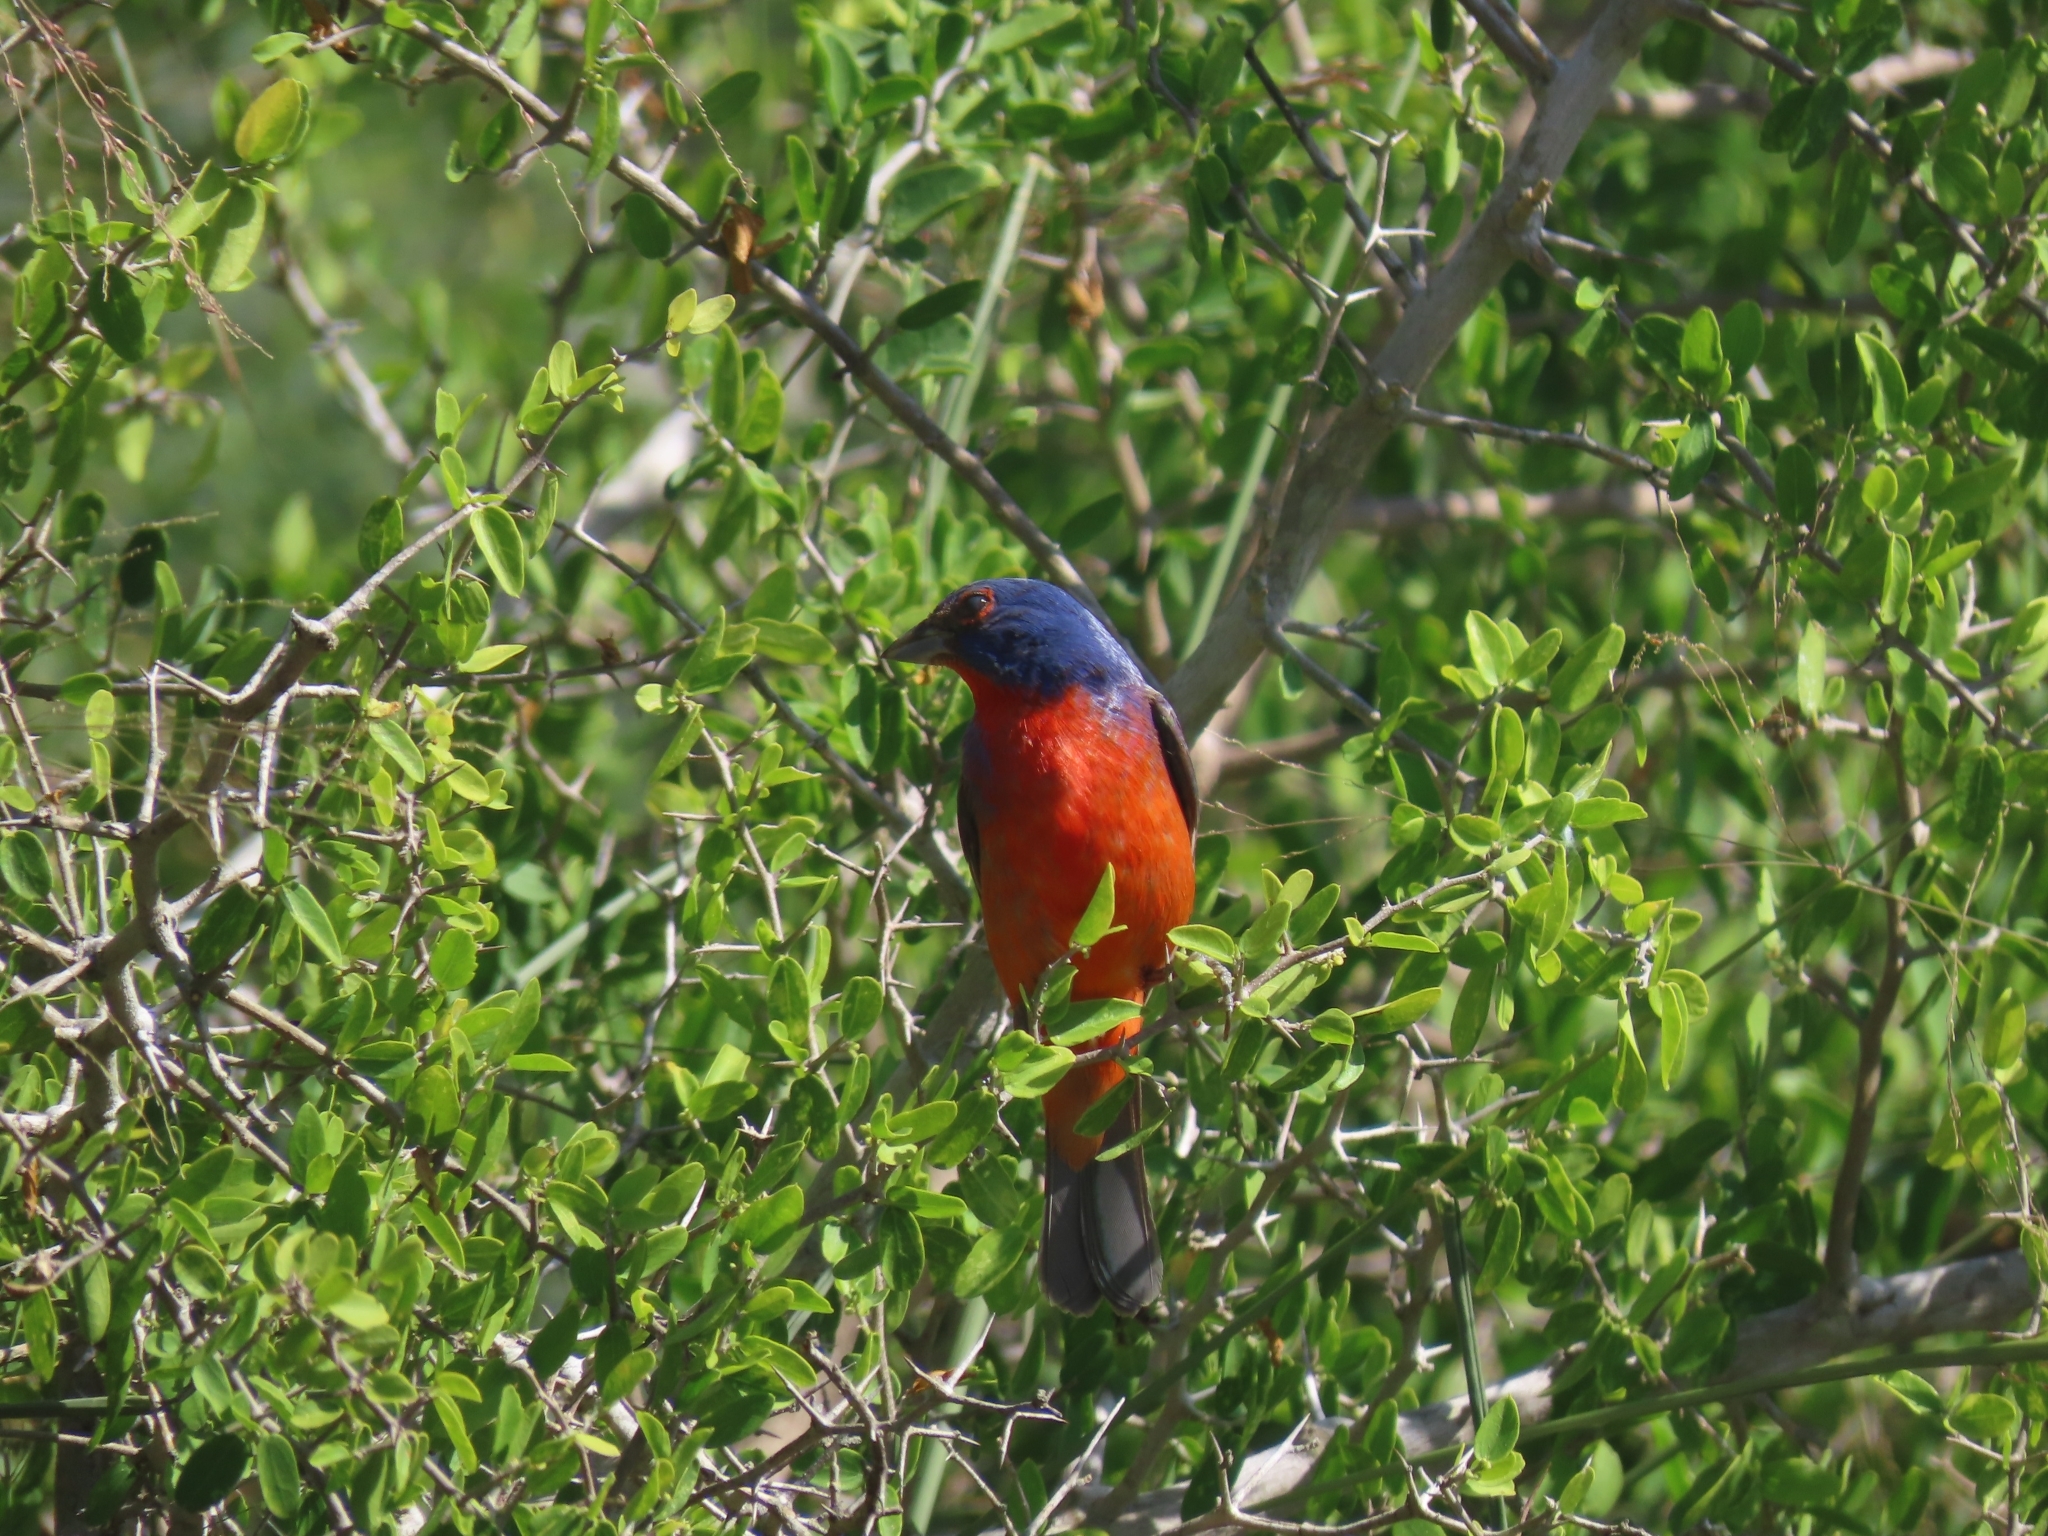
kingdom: Animalia
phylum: Chordata
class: Aves
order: Passeriformes
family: Cardinalidae
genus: Passerina
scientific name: Passerina ciris
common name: Painted bunting
